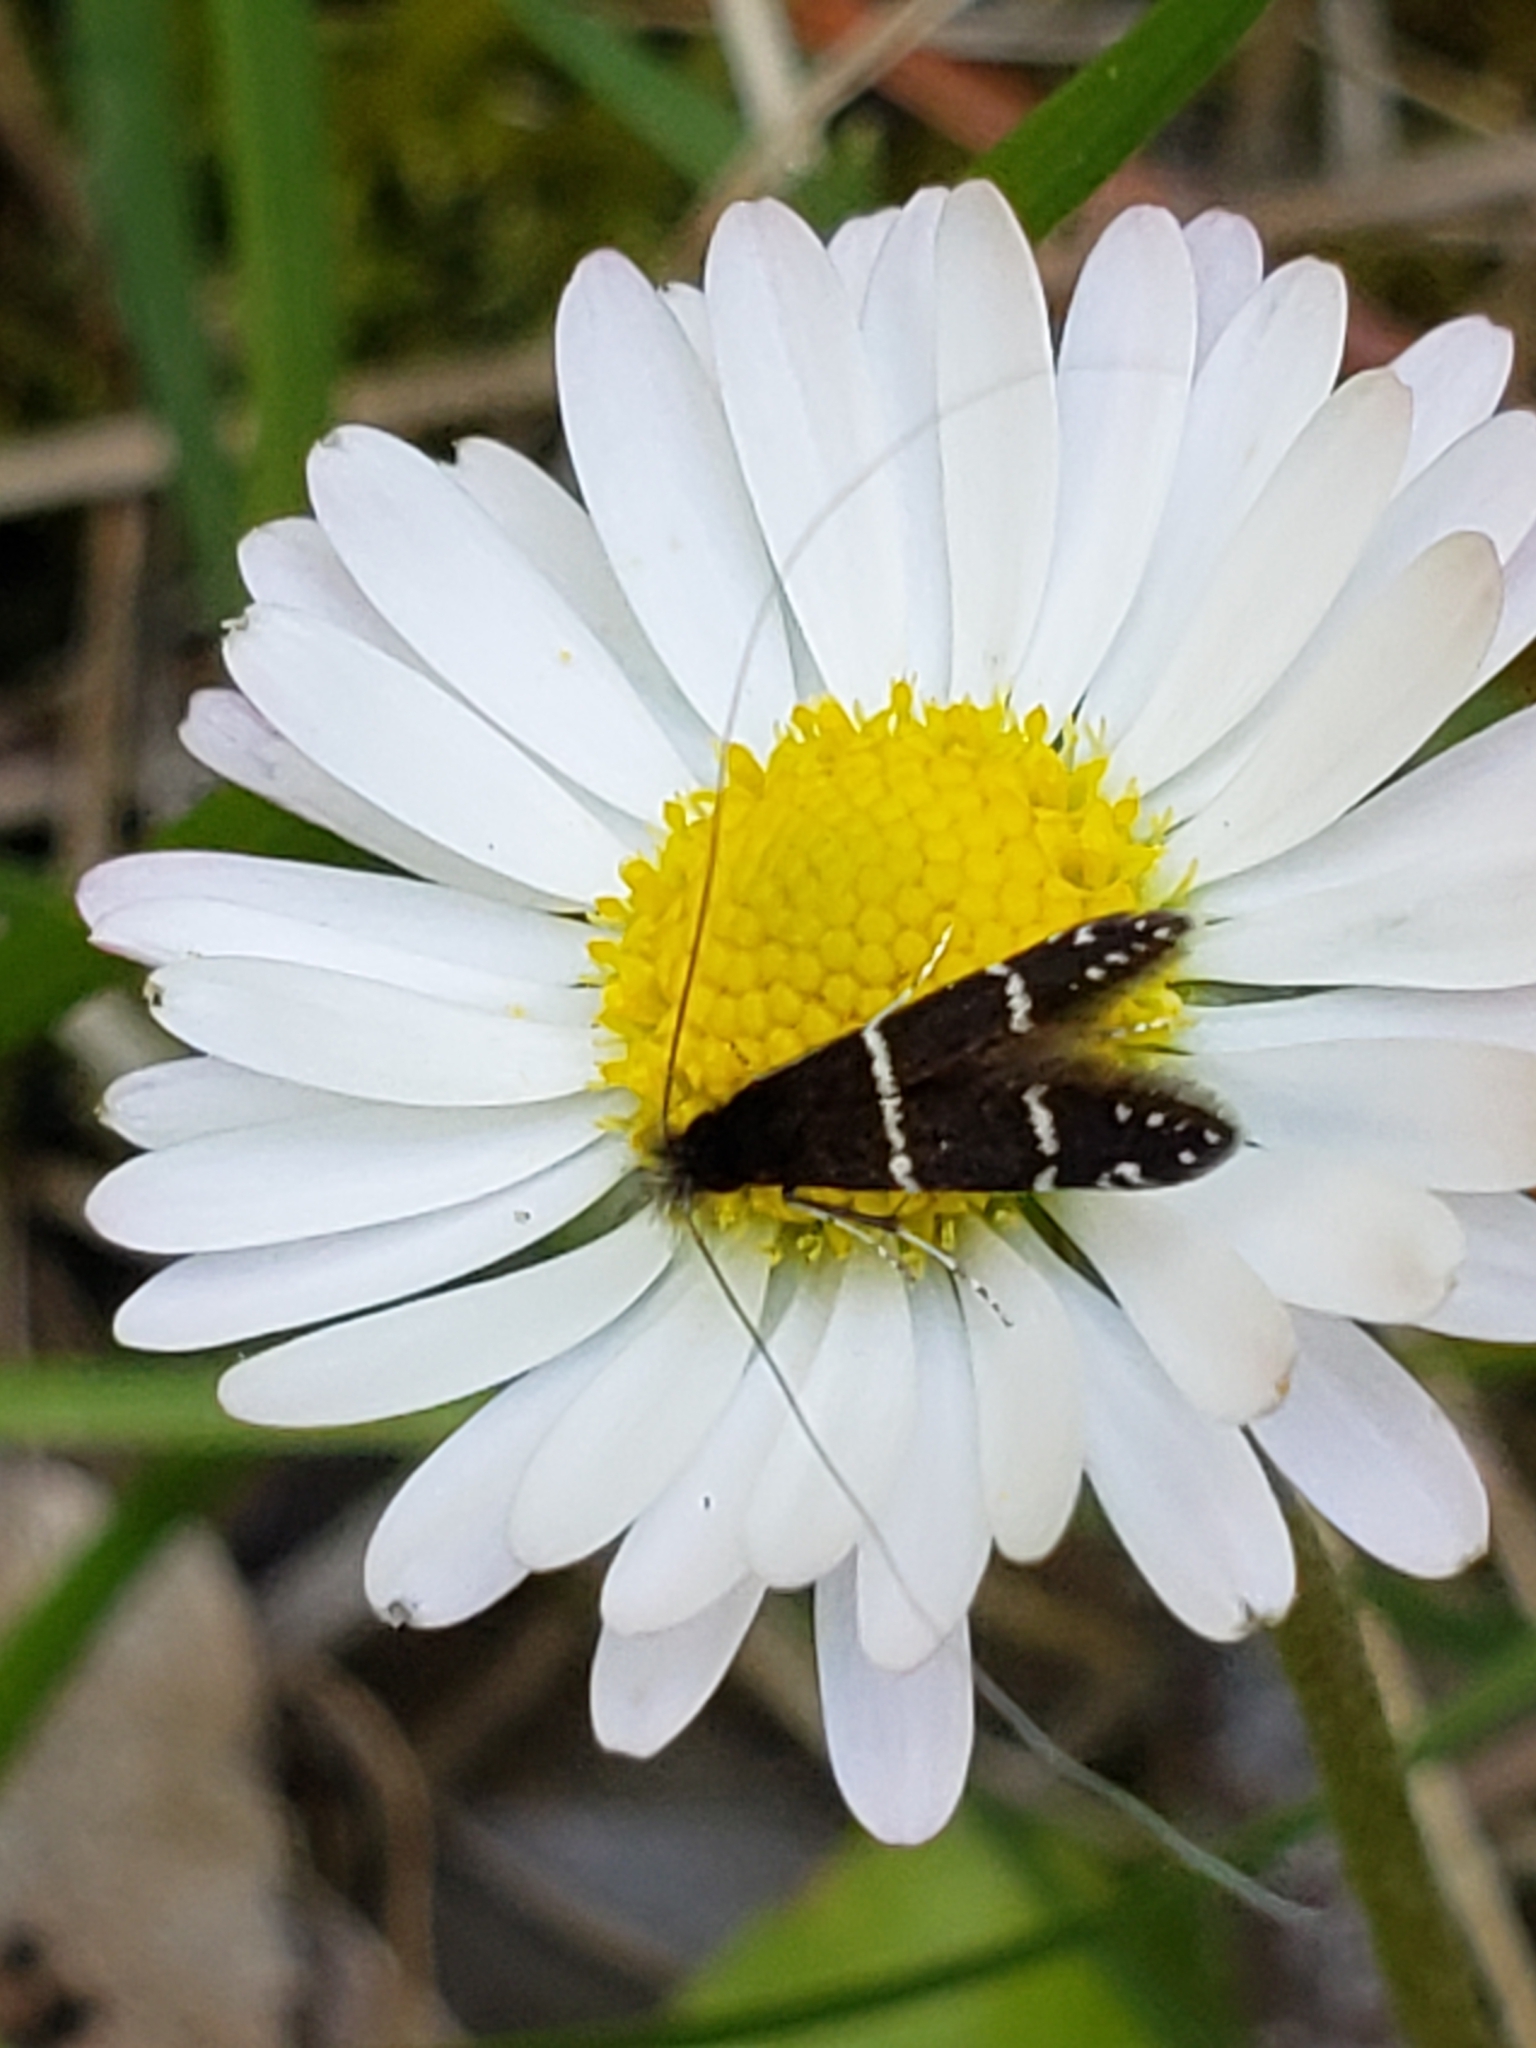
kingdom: Animalia
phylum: Arthropoda
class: Insecta
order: Lepidoptera
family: Adelidae
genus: Adela
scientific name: Adela septentrionella
